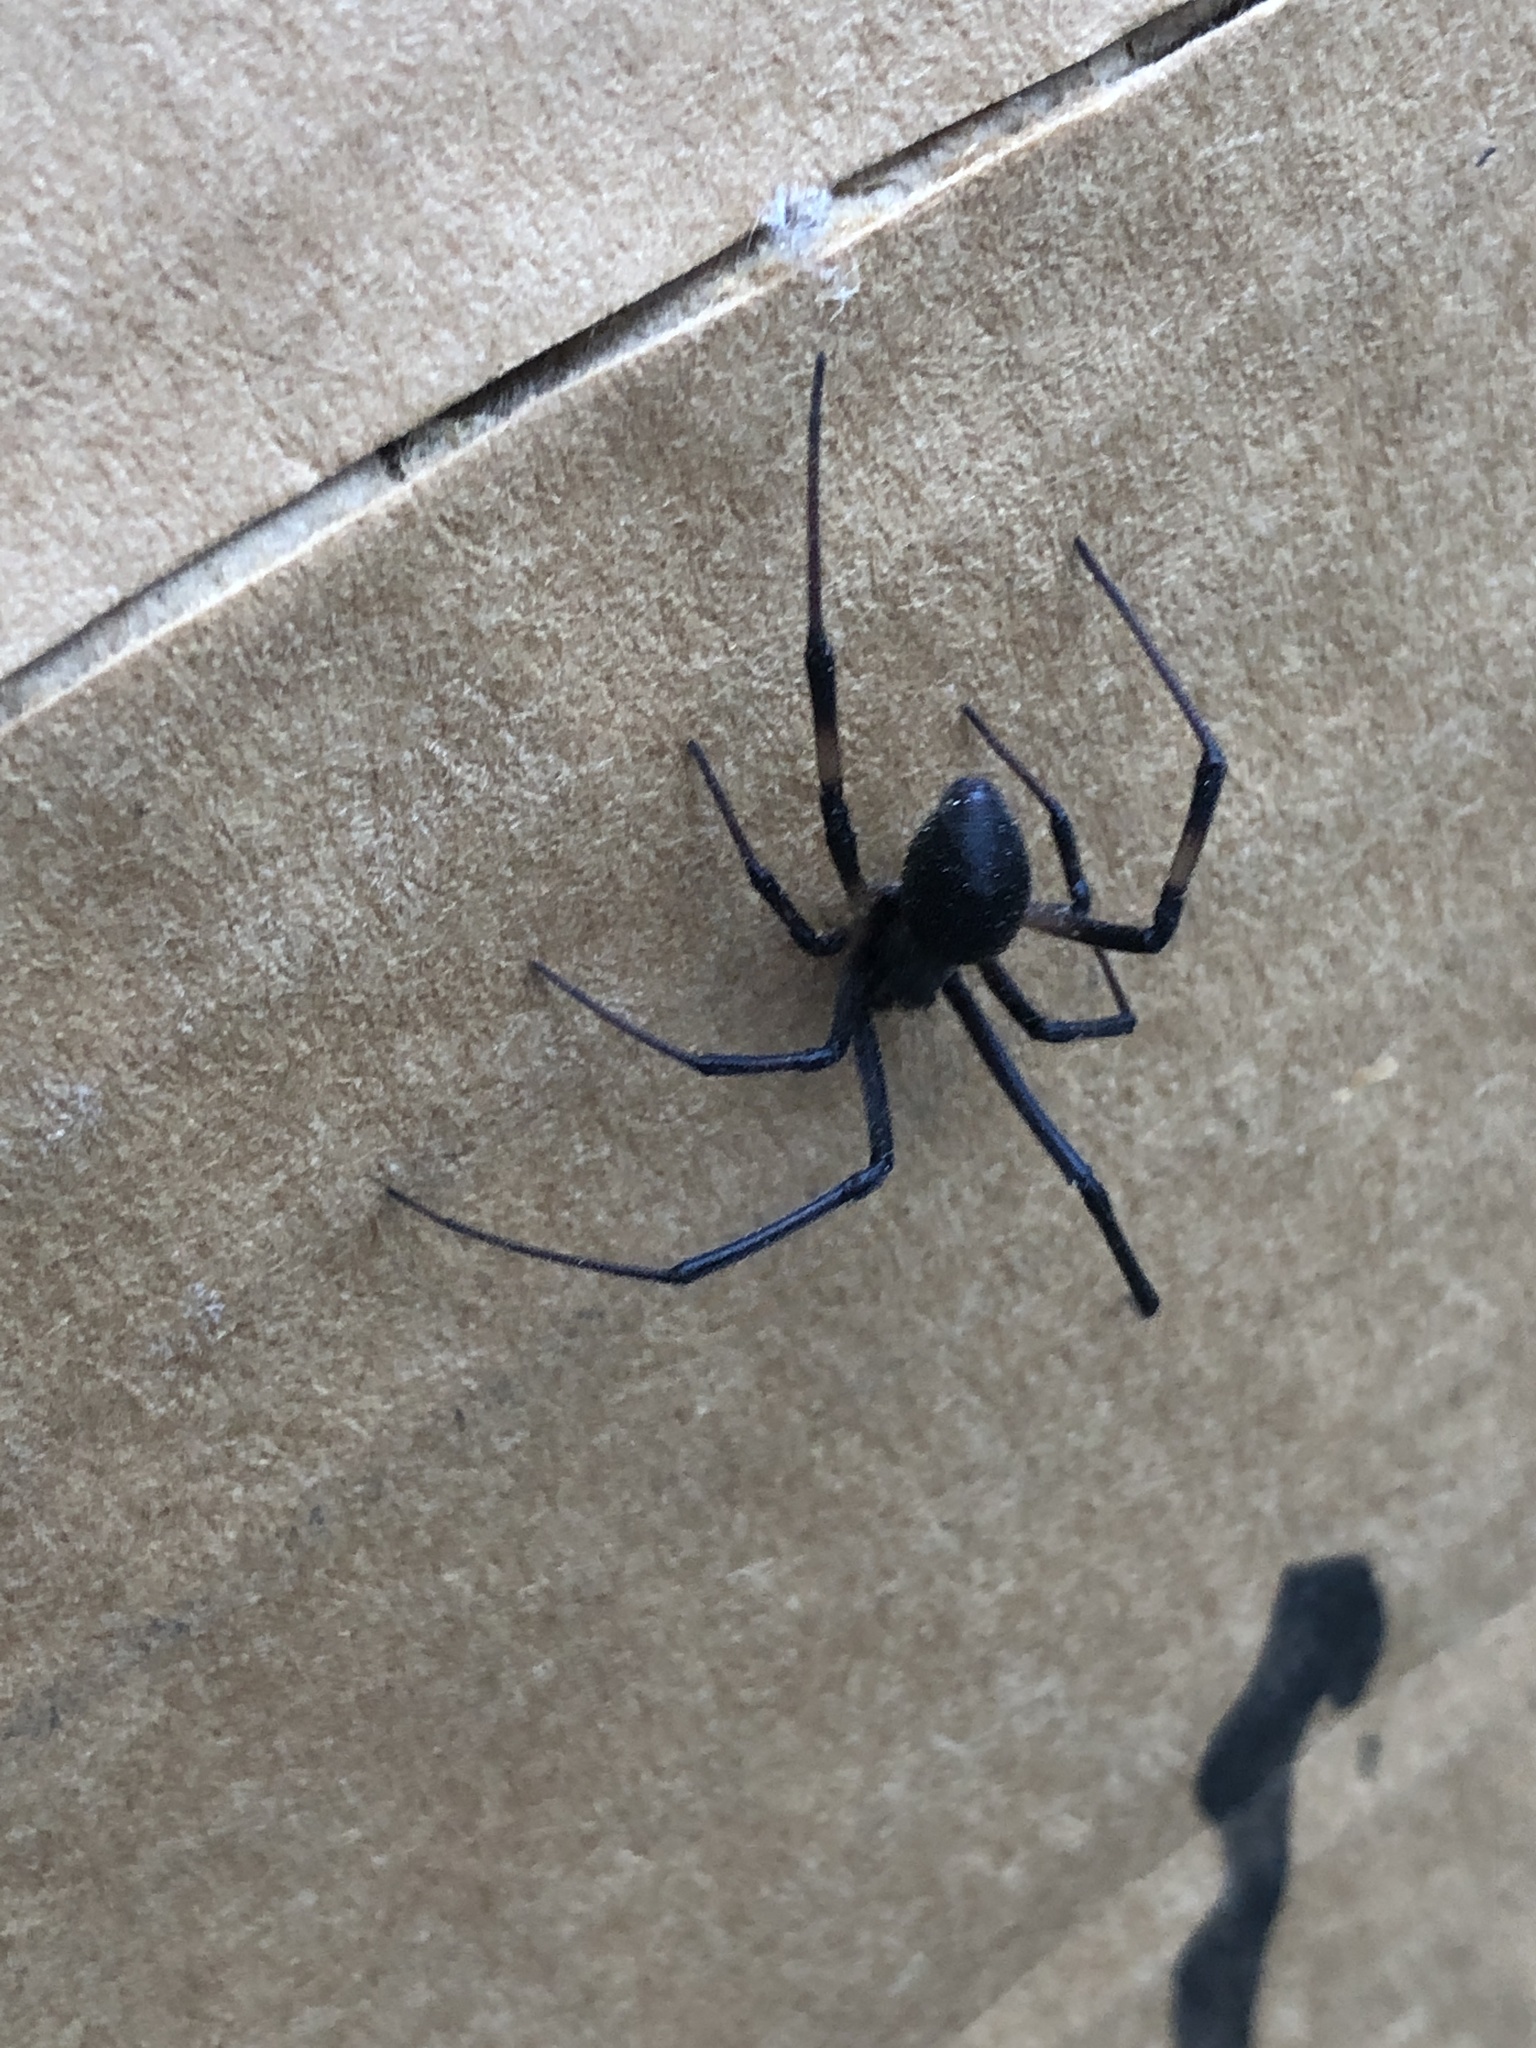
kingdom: Animalia
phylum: Arthropoda
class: Arachnida
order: Araneae
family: Theridiidae
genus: Latrodectus
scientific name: Latrodectus geometricus
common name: Brown widow spider
